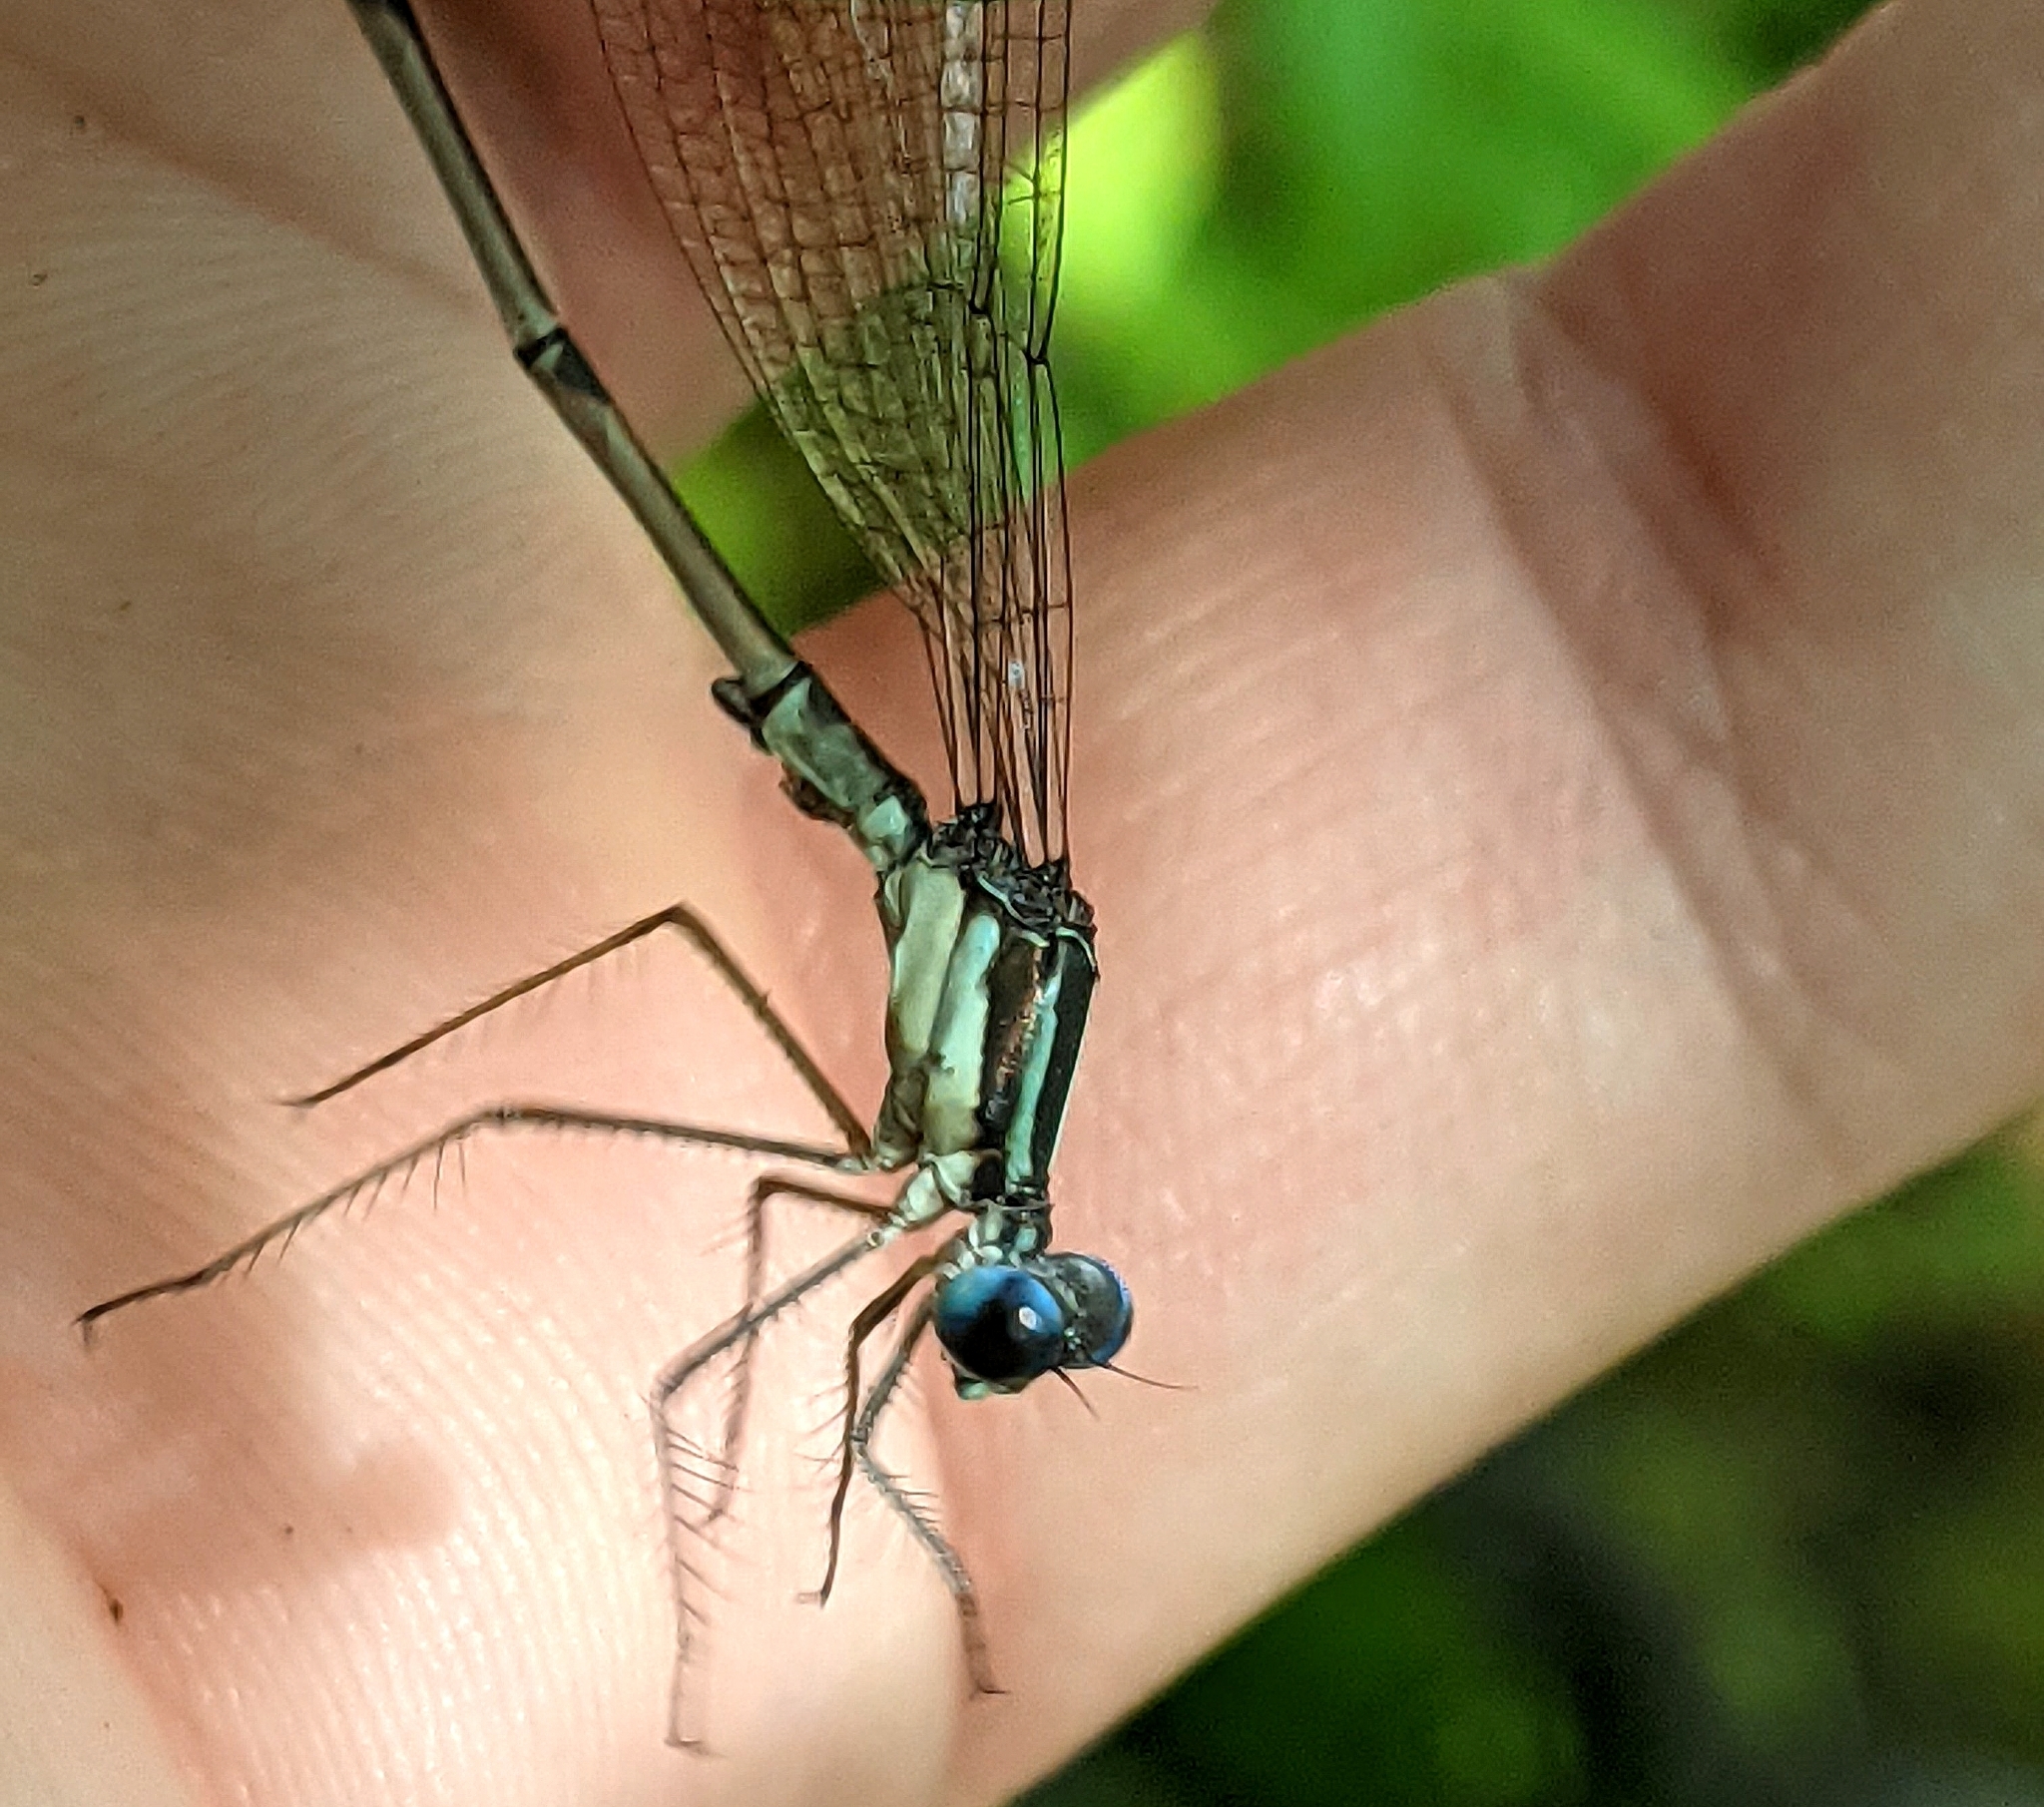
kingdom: Animalia
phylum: Arthropoda
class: Insecta
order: Odonata
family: Lestidae
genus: Lestes
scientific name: Lestes rectangularis
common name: Slender spreadwing
